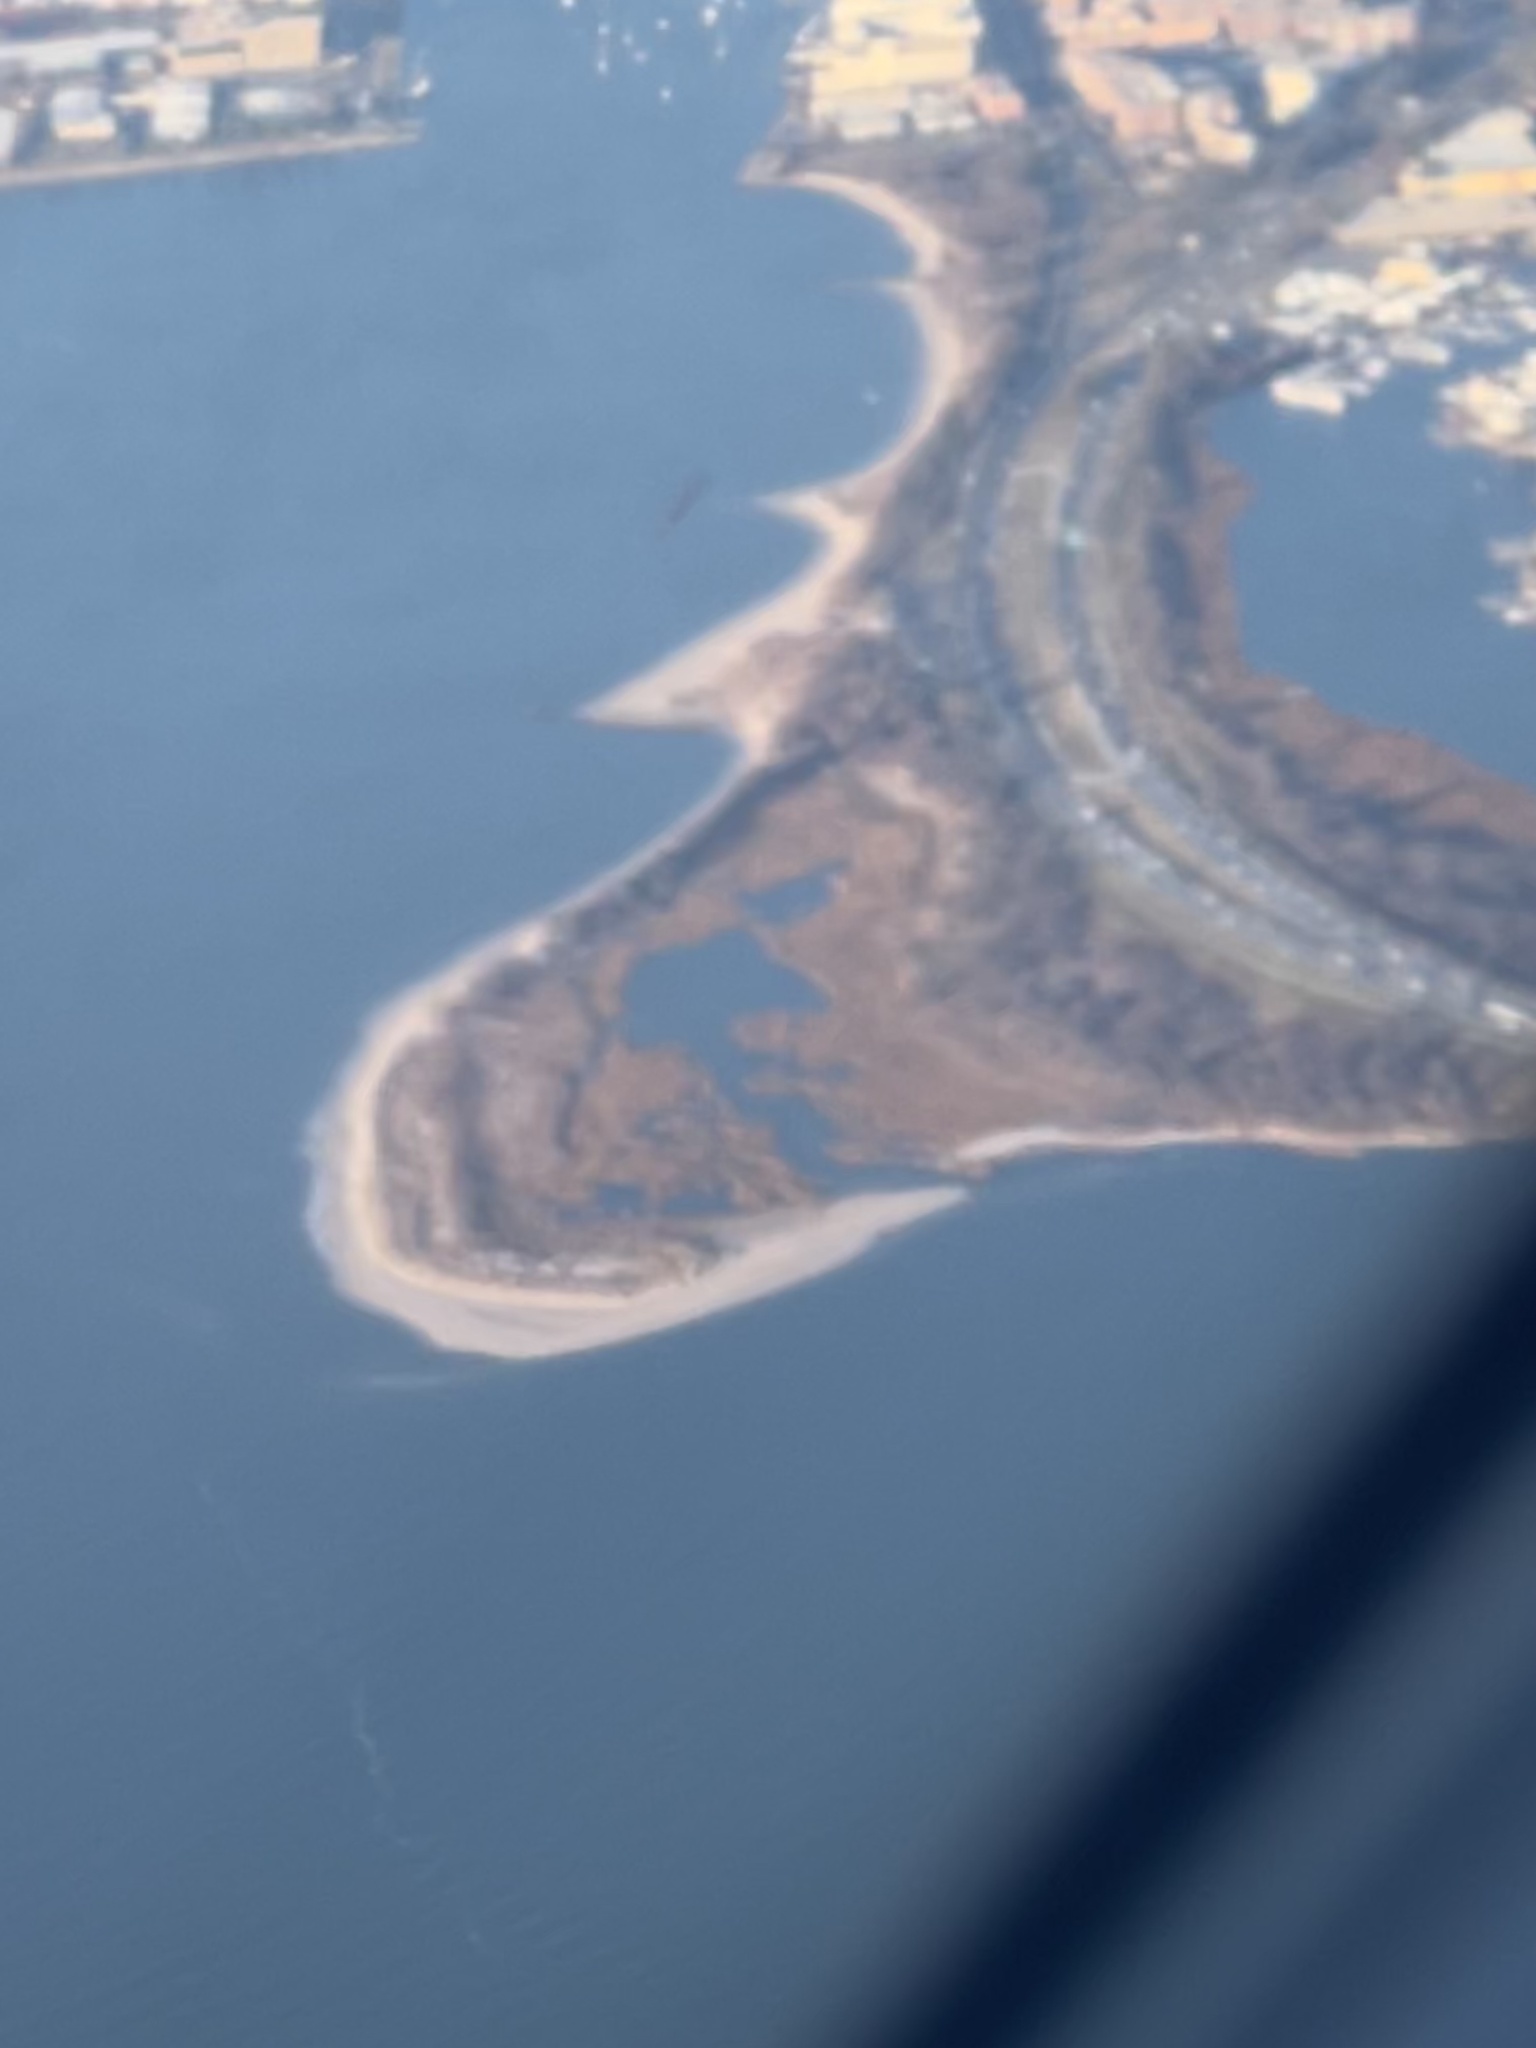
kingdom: Plantae
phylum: Tracheophyta
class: Liliopsida
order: Poales
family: Poaceae
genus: Sporobolus
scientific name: Sporobolus pumilus
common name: Highwater grass
